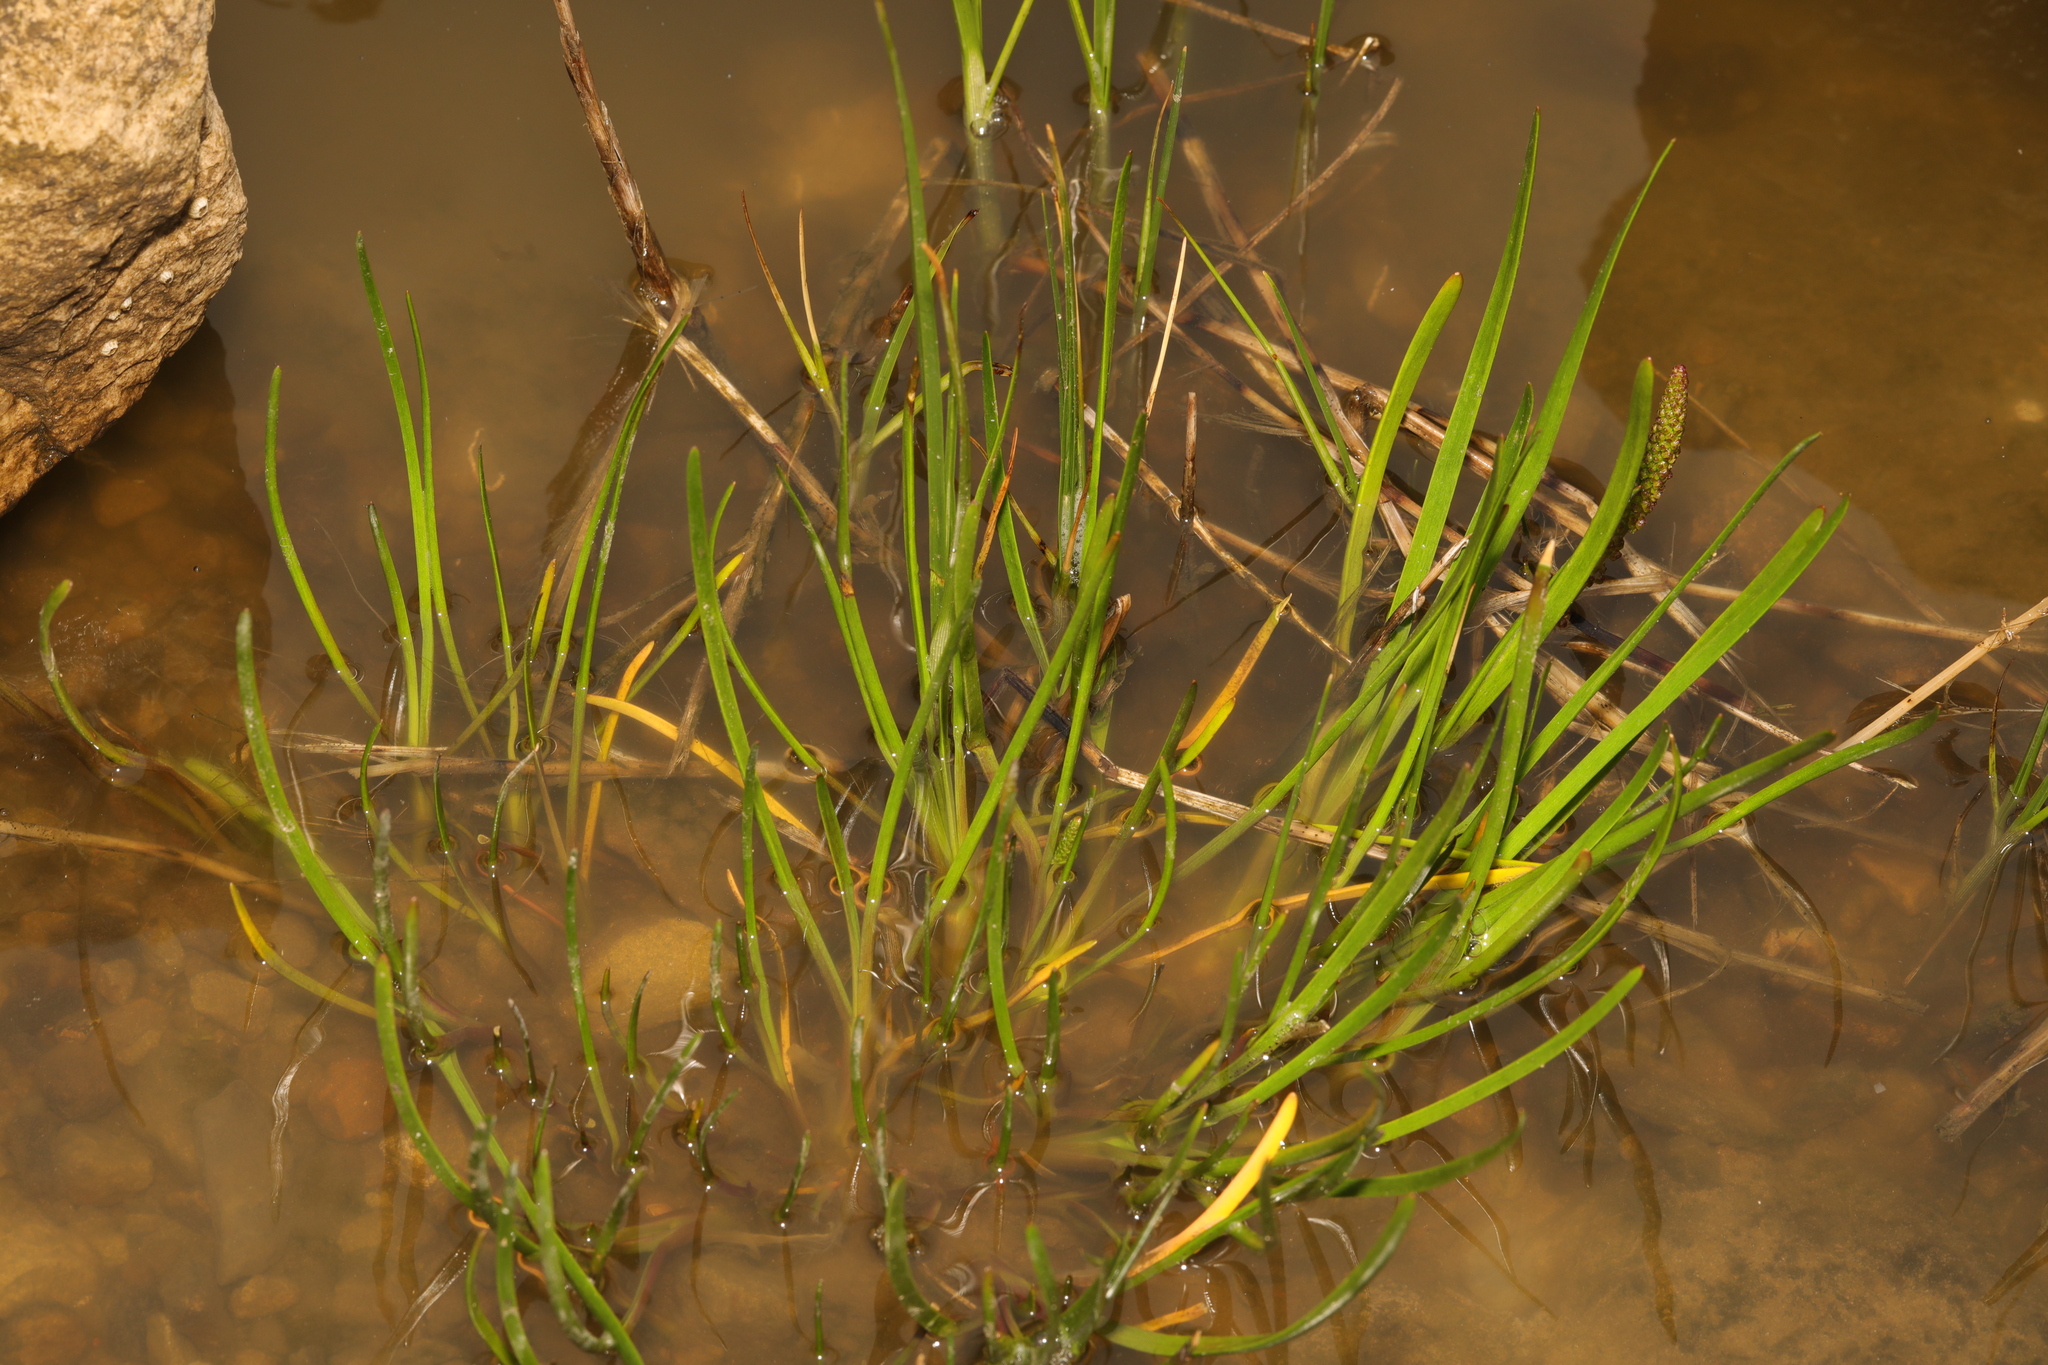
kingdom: Plantae
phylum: Tracheophyta
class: Magnoliopsida
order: Lamiales
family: Plantaginaceae
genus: Plantago
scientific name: Plantago maritima
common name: Sea plantain
